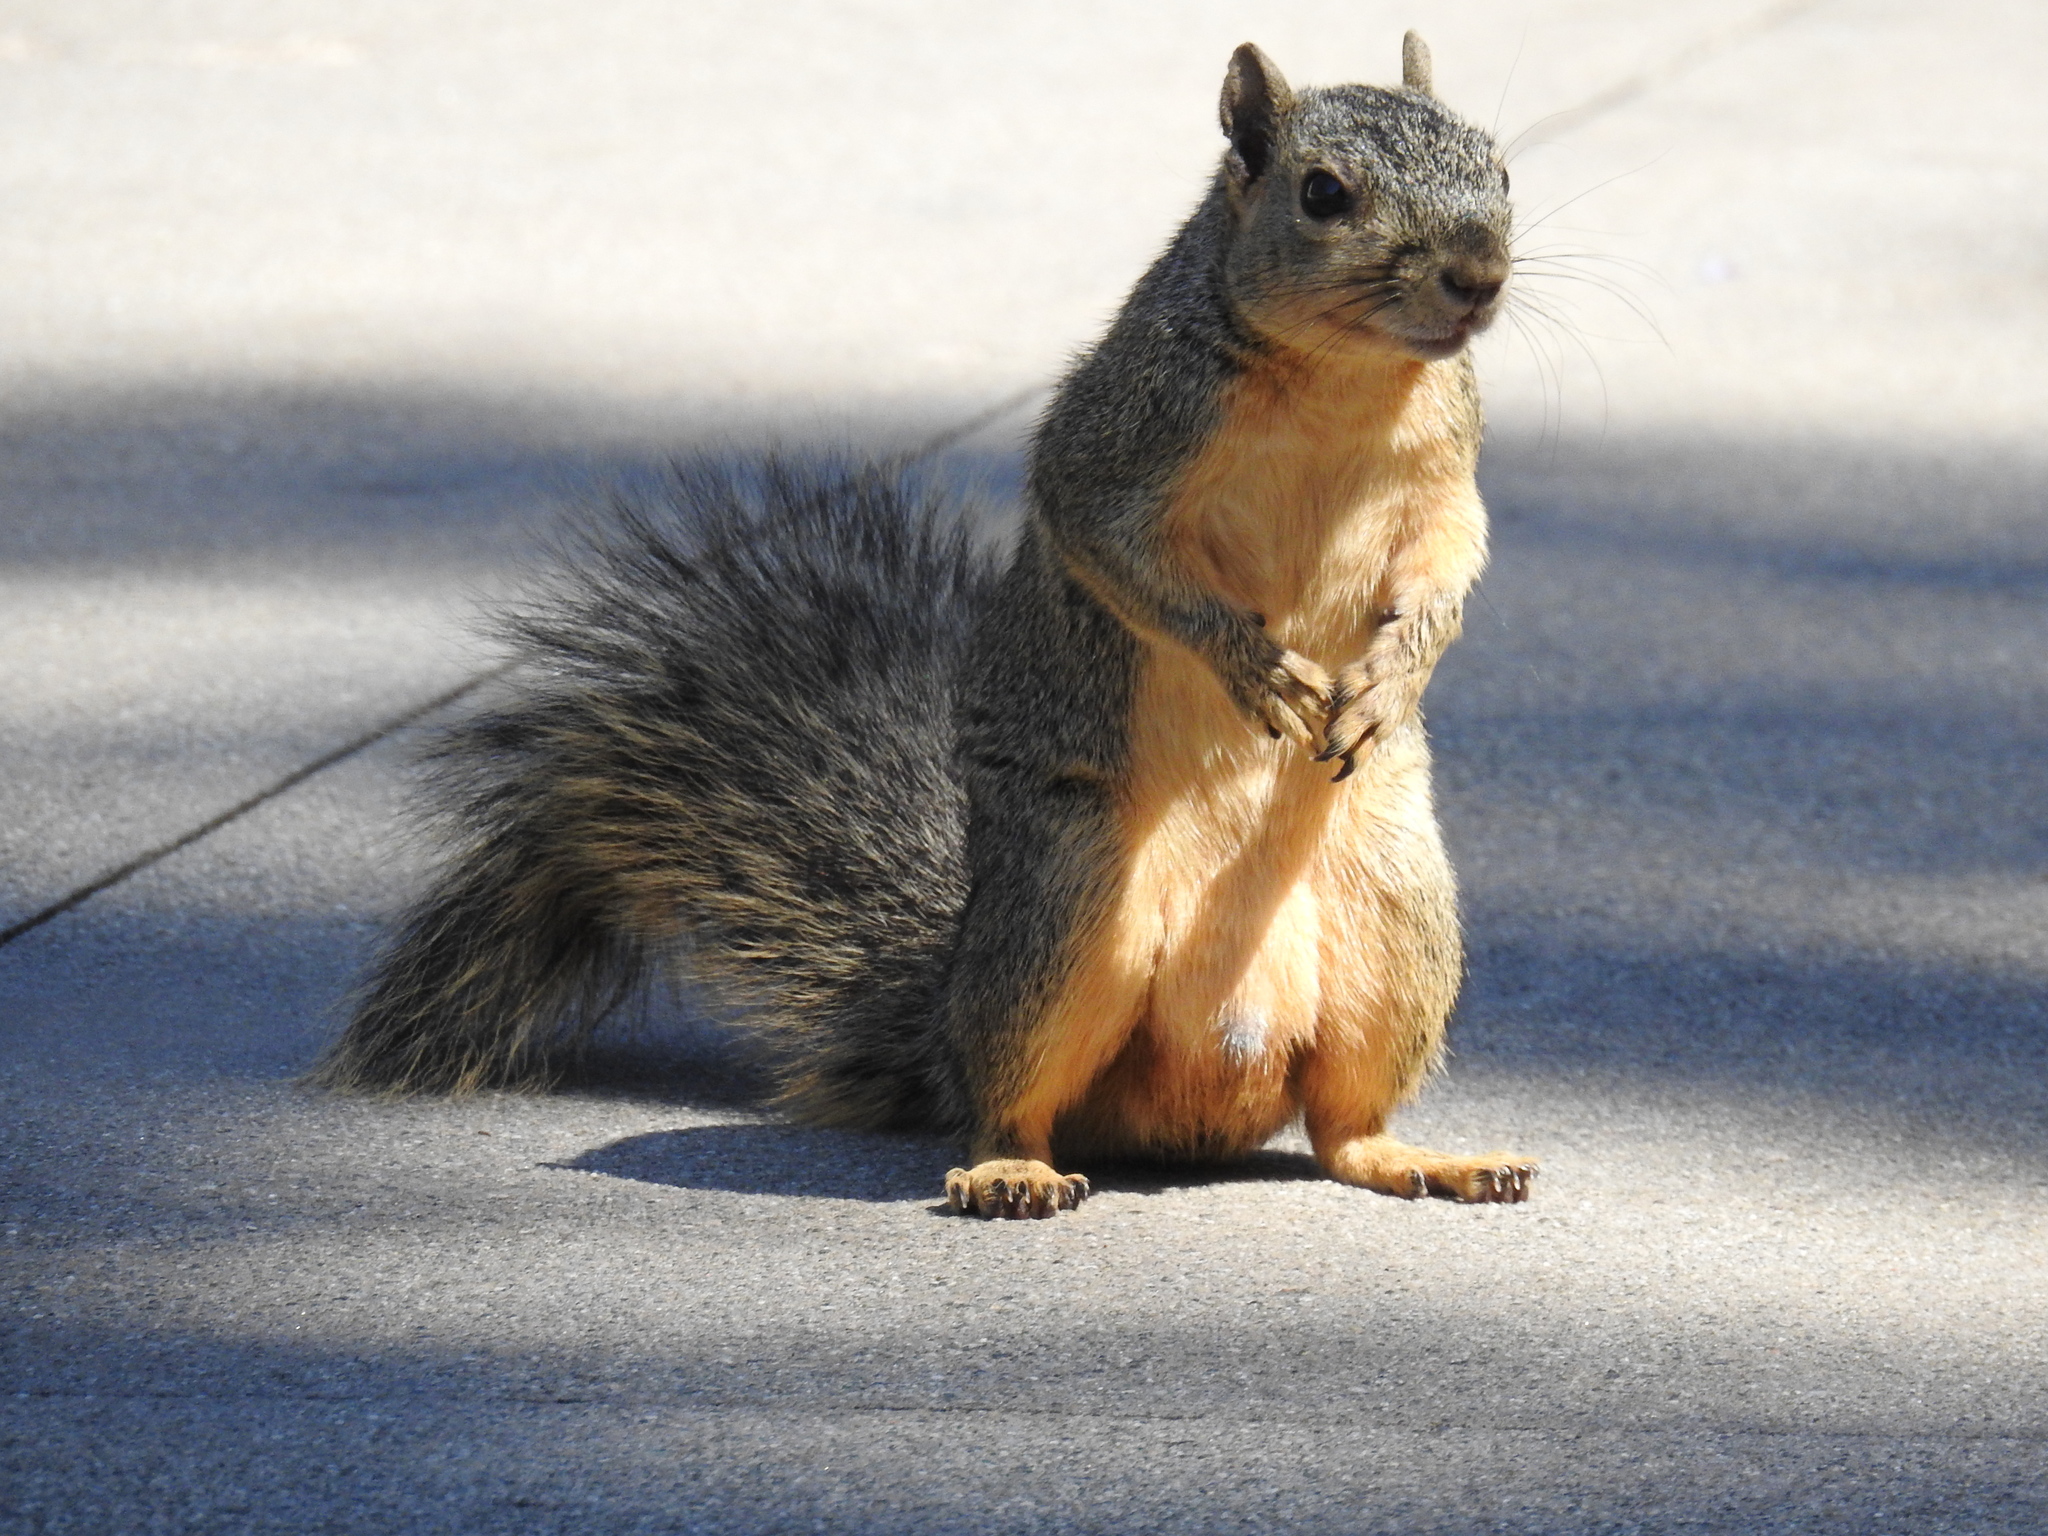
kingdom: Animalia
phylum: Chordata
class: Mammalia
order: Rodentia
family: Sciuridae
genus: Sciurus
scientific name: Sciurus niger
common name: Fox squirrel
